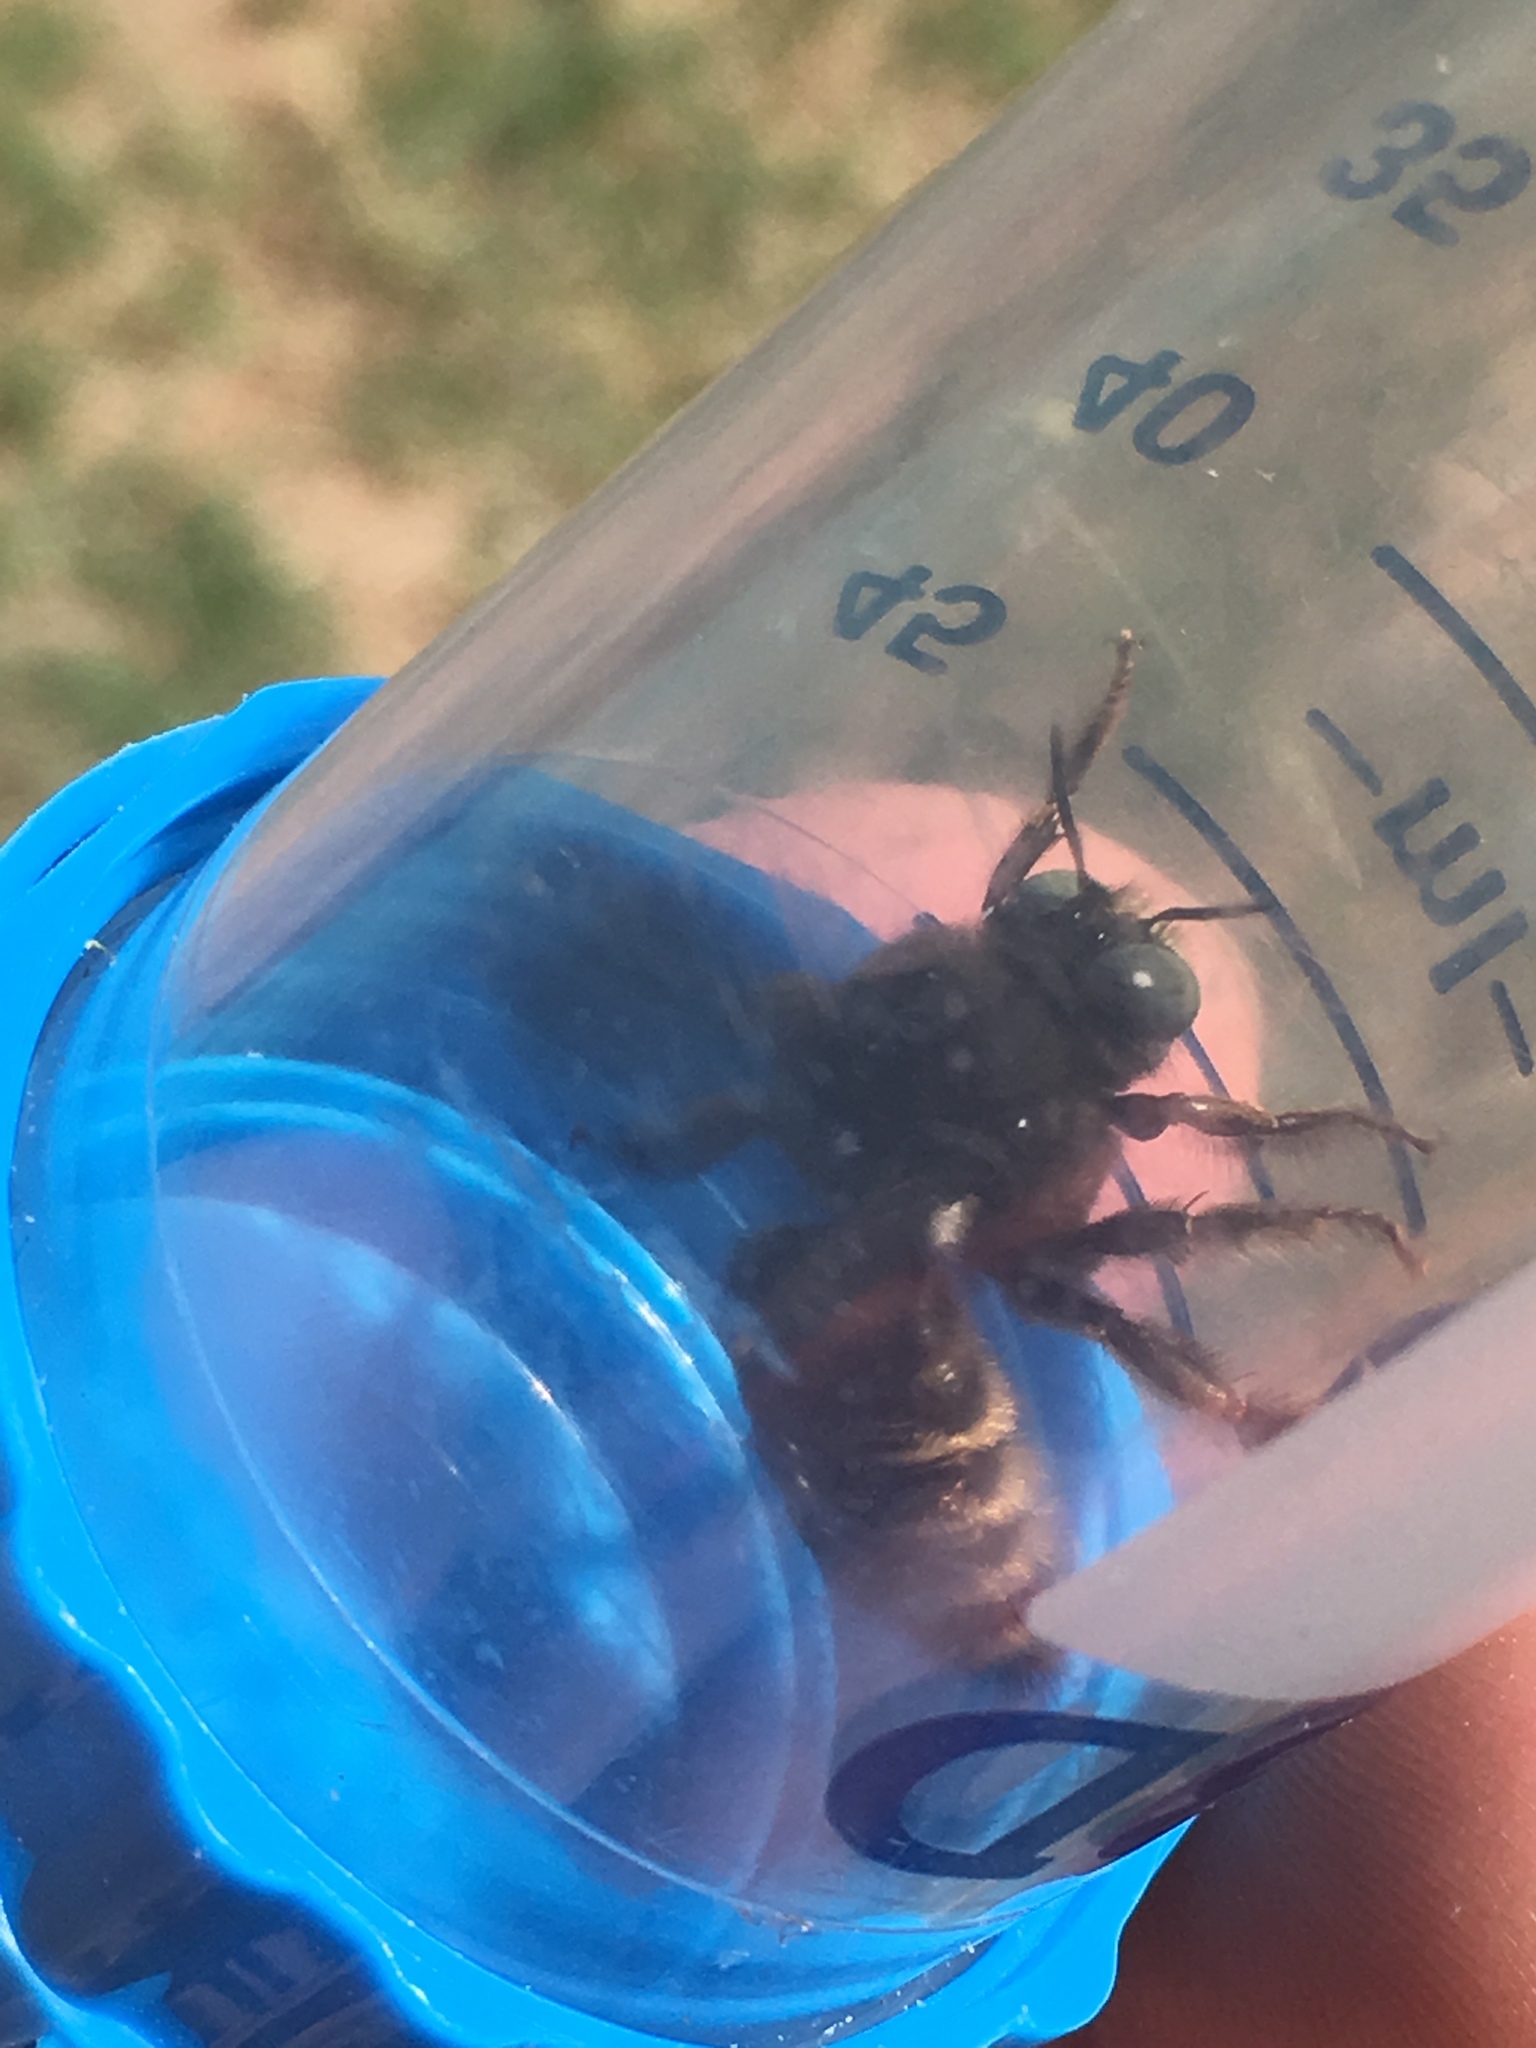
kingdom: Animalia
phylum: Arthropoda
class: Insecta
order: Hymenoptera
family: Apidae
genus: Xylocopa
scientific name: Xylocopa tabaniformis
